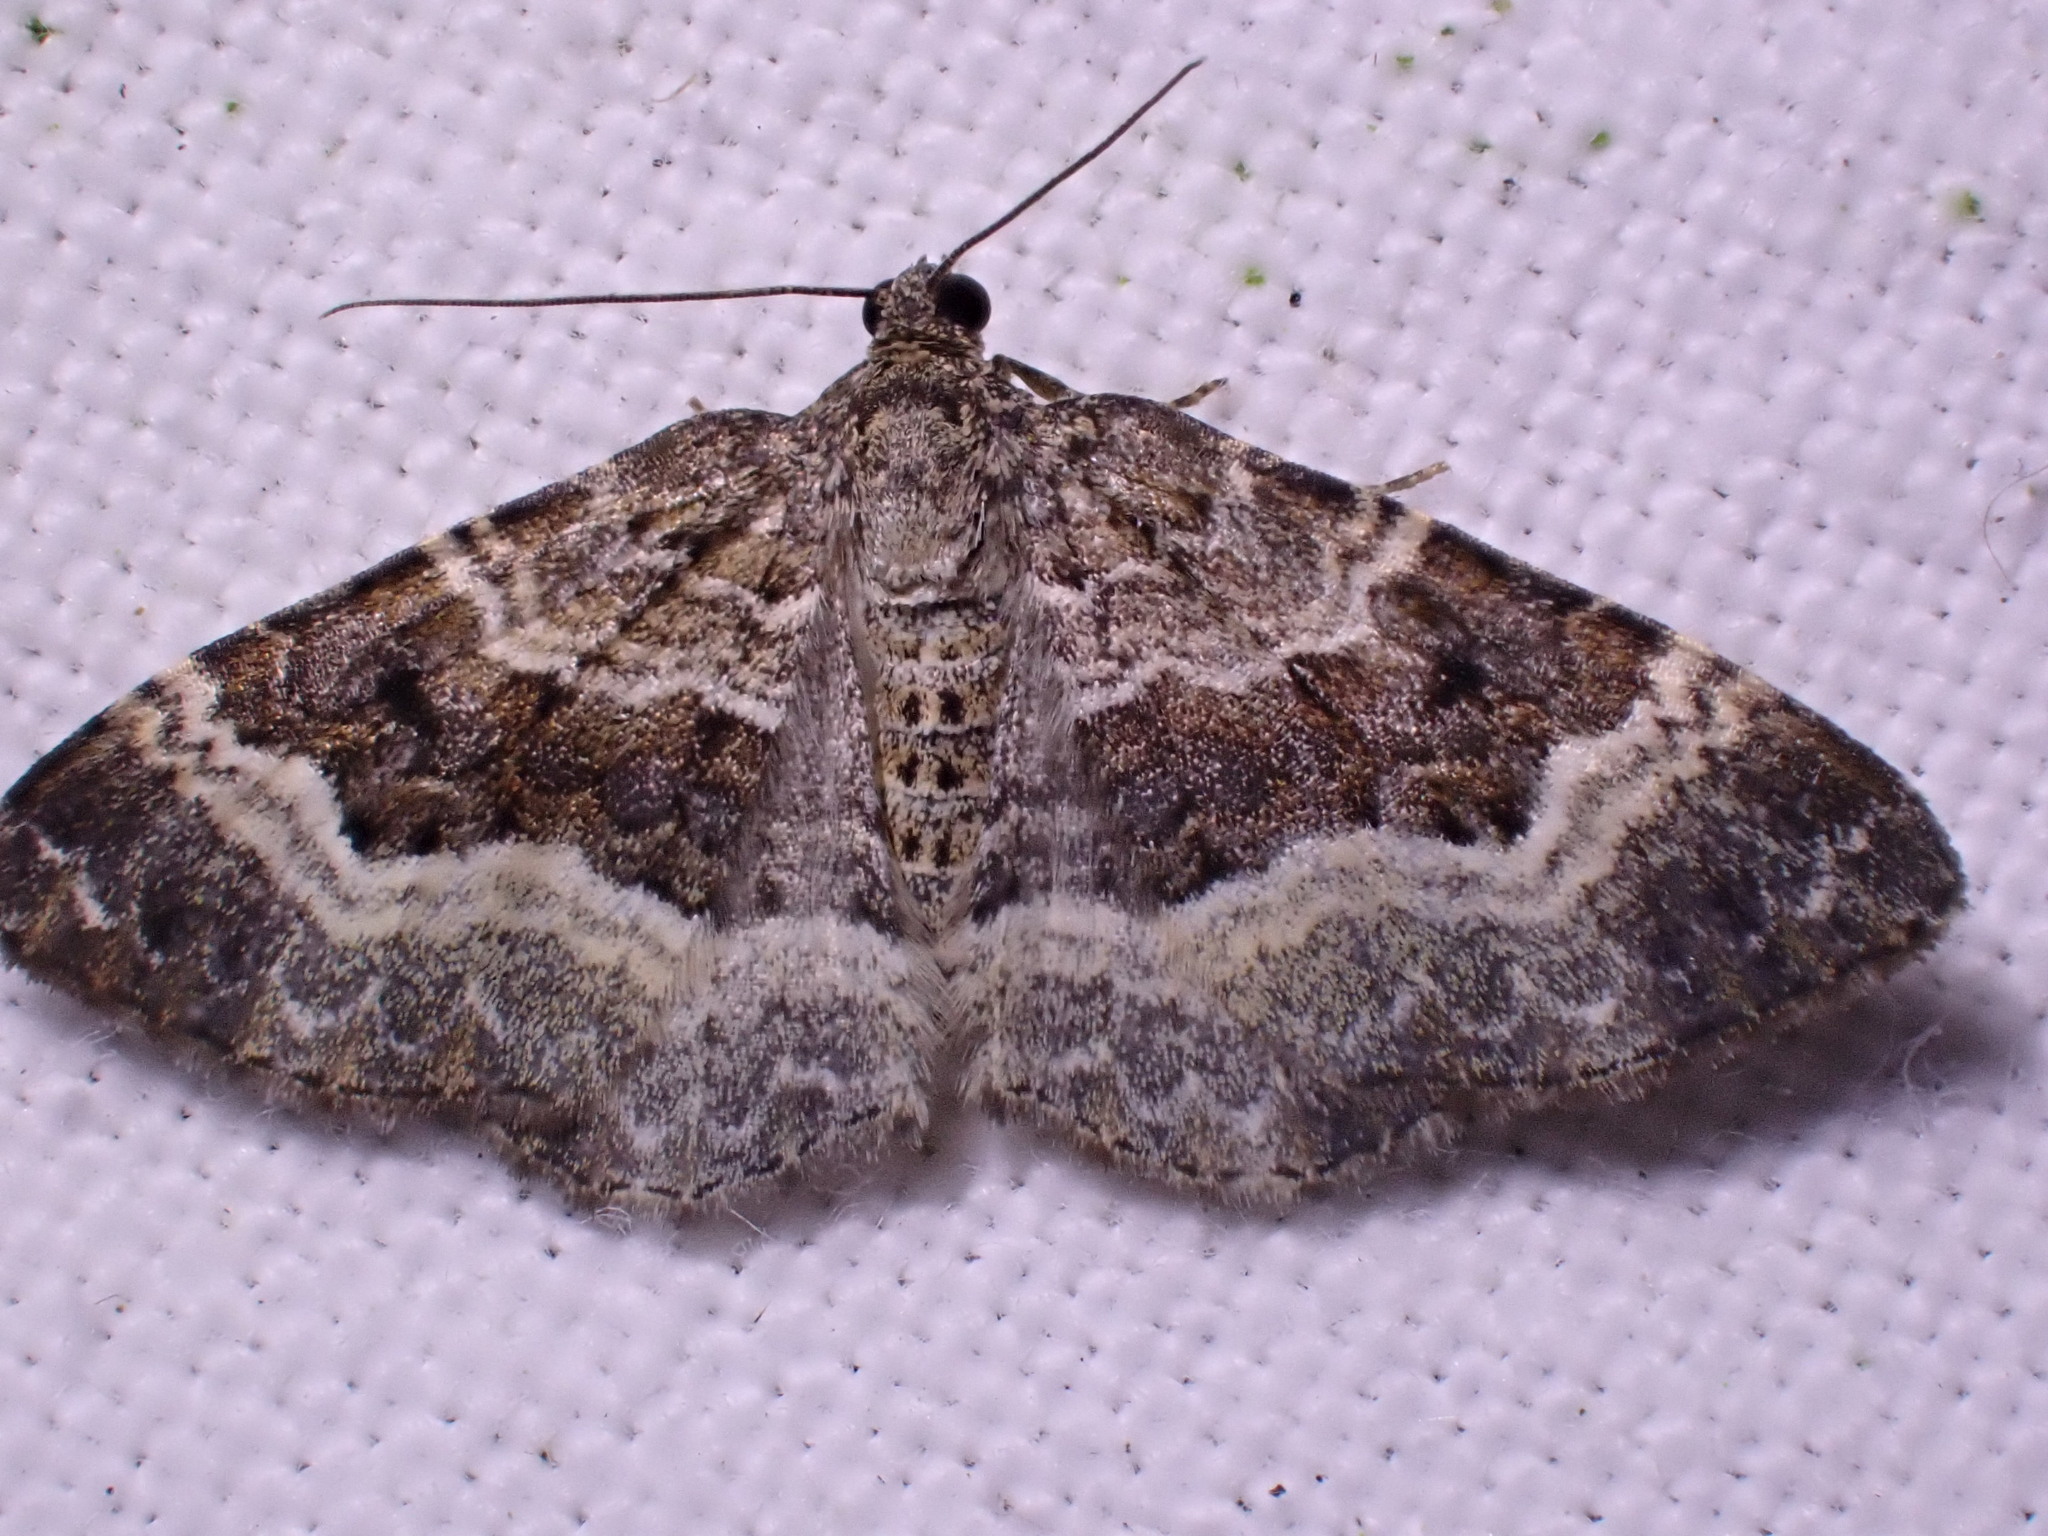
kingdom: Animalia
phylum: Arthropoda
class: Insecta
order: Lepidoptera
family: Geometridae
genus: Epirrhoe
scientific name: Epirrhoe alternata
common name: Common carpet
